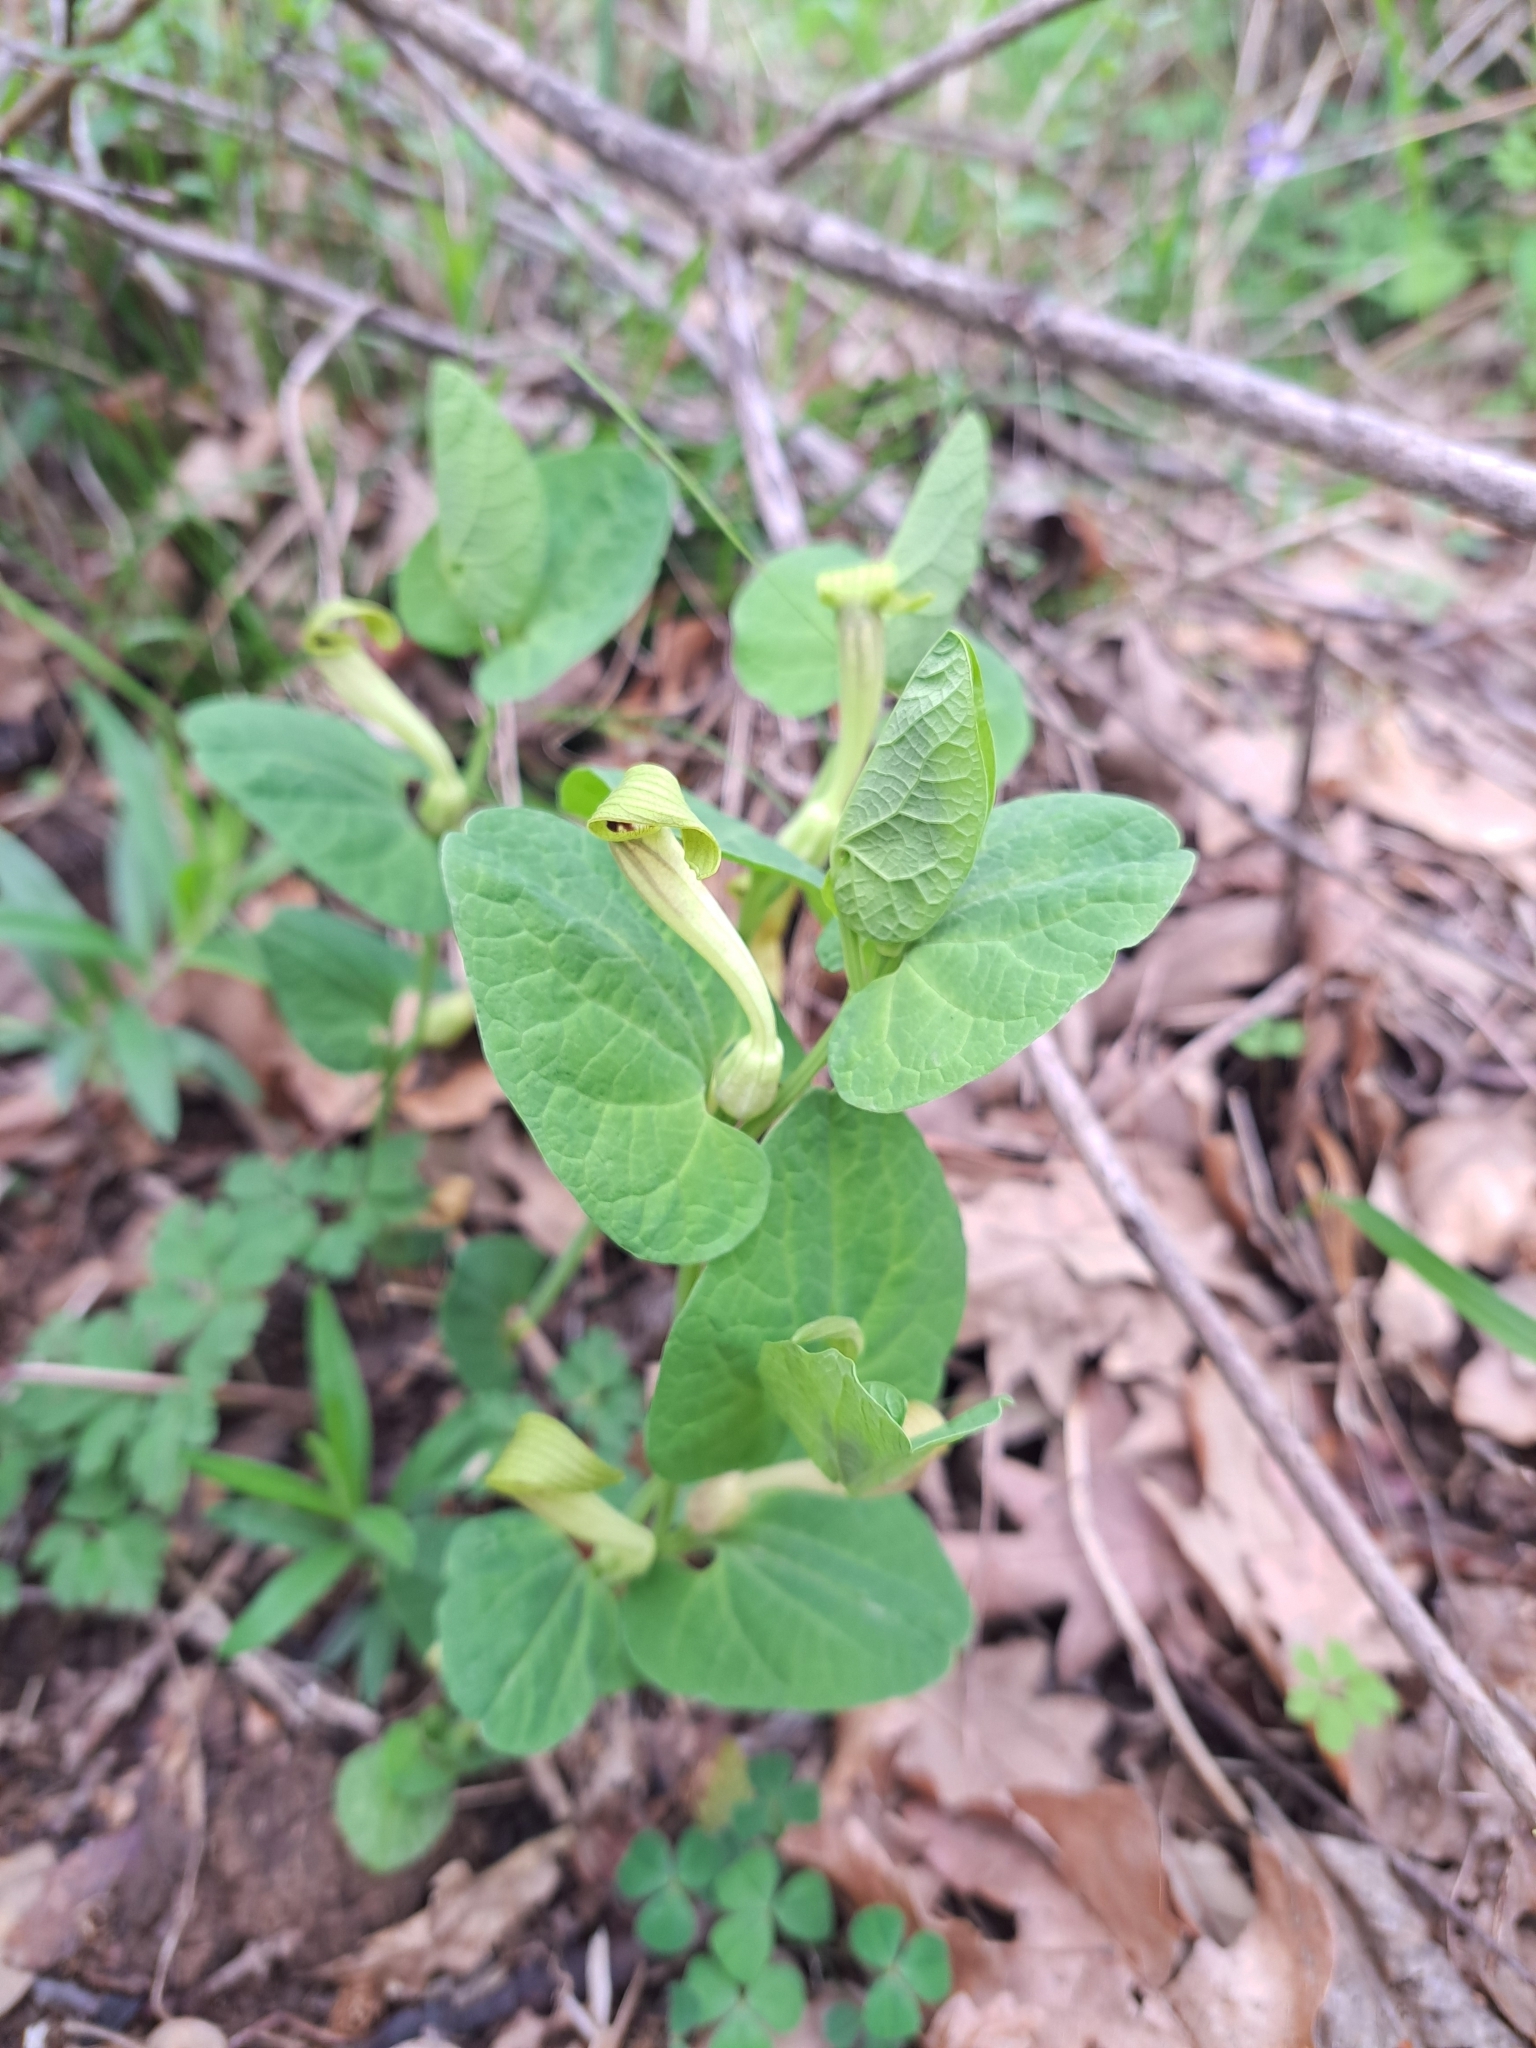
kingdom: Plantae
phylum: Tracheophyta
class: Magnoliopsida
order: Piperales
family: Aristolochiaceae
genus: Aristolochia
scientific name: Aristolochia lutea
